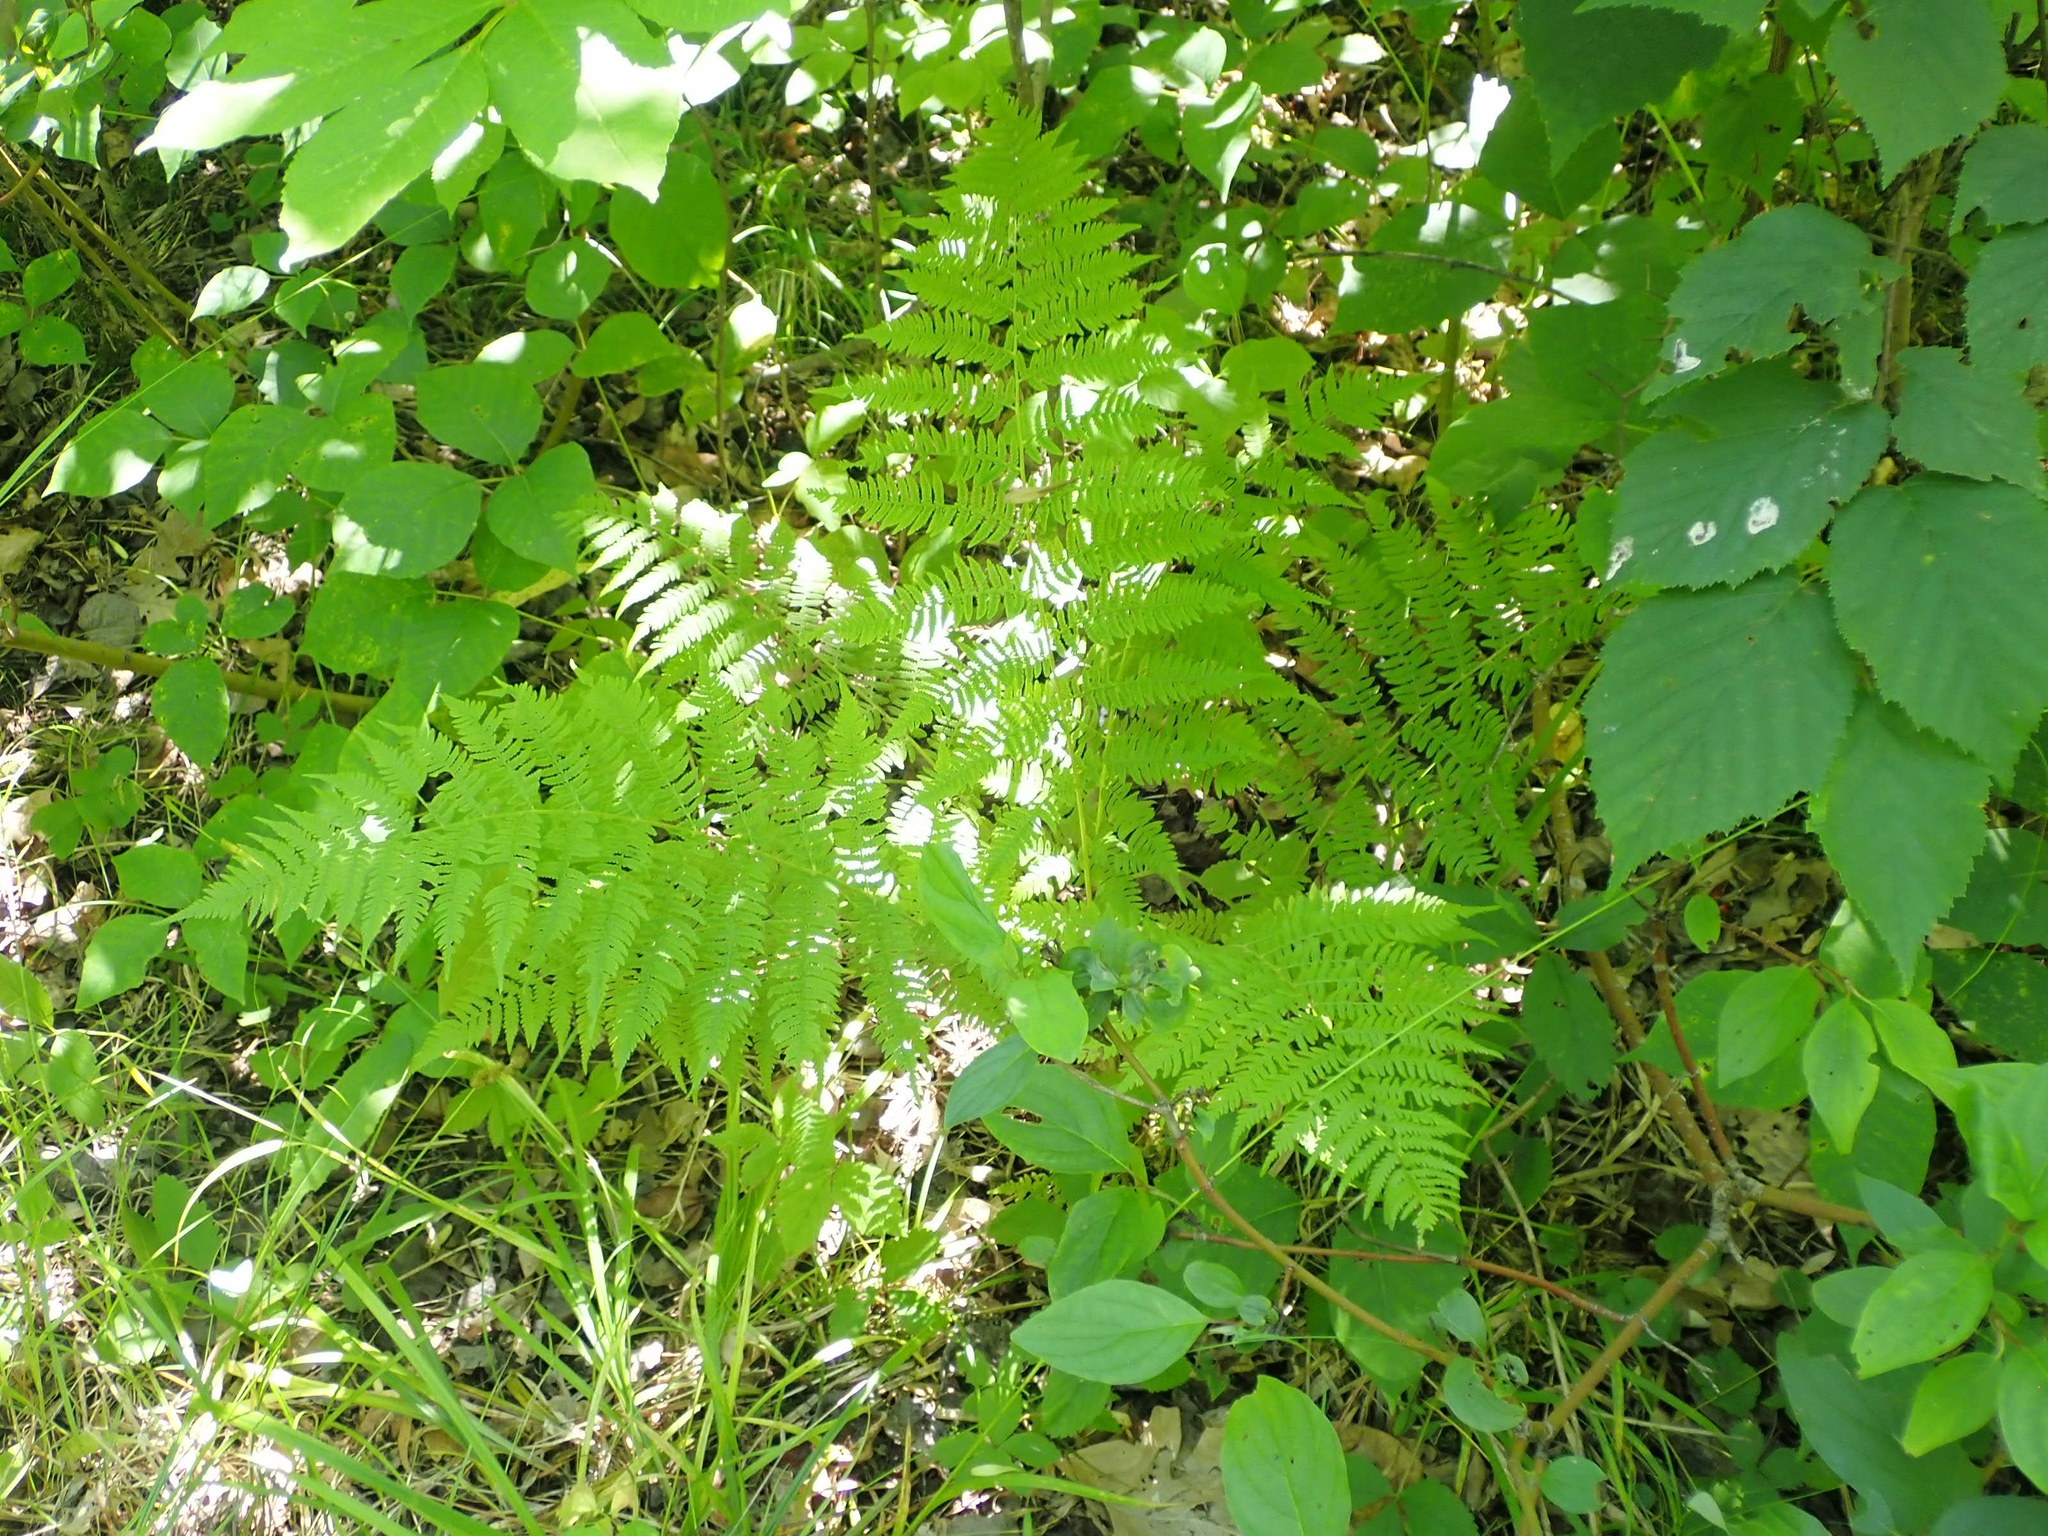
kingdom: Plantae
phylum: Tracheophyta
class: Polypodiopsida
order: Polypodiales
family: Athyriaceae
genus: Athyrium
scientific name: Athyrium angustum
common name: Northern lady fern
